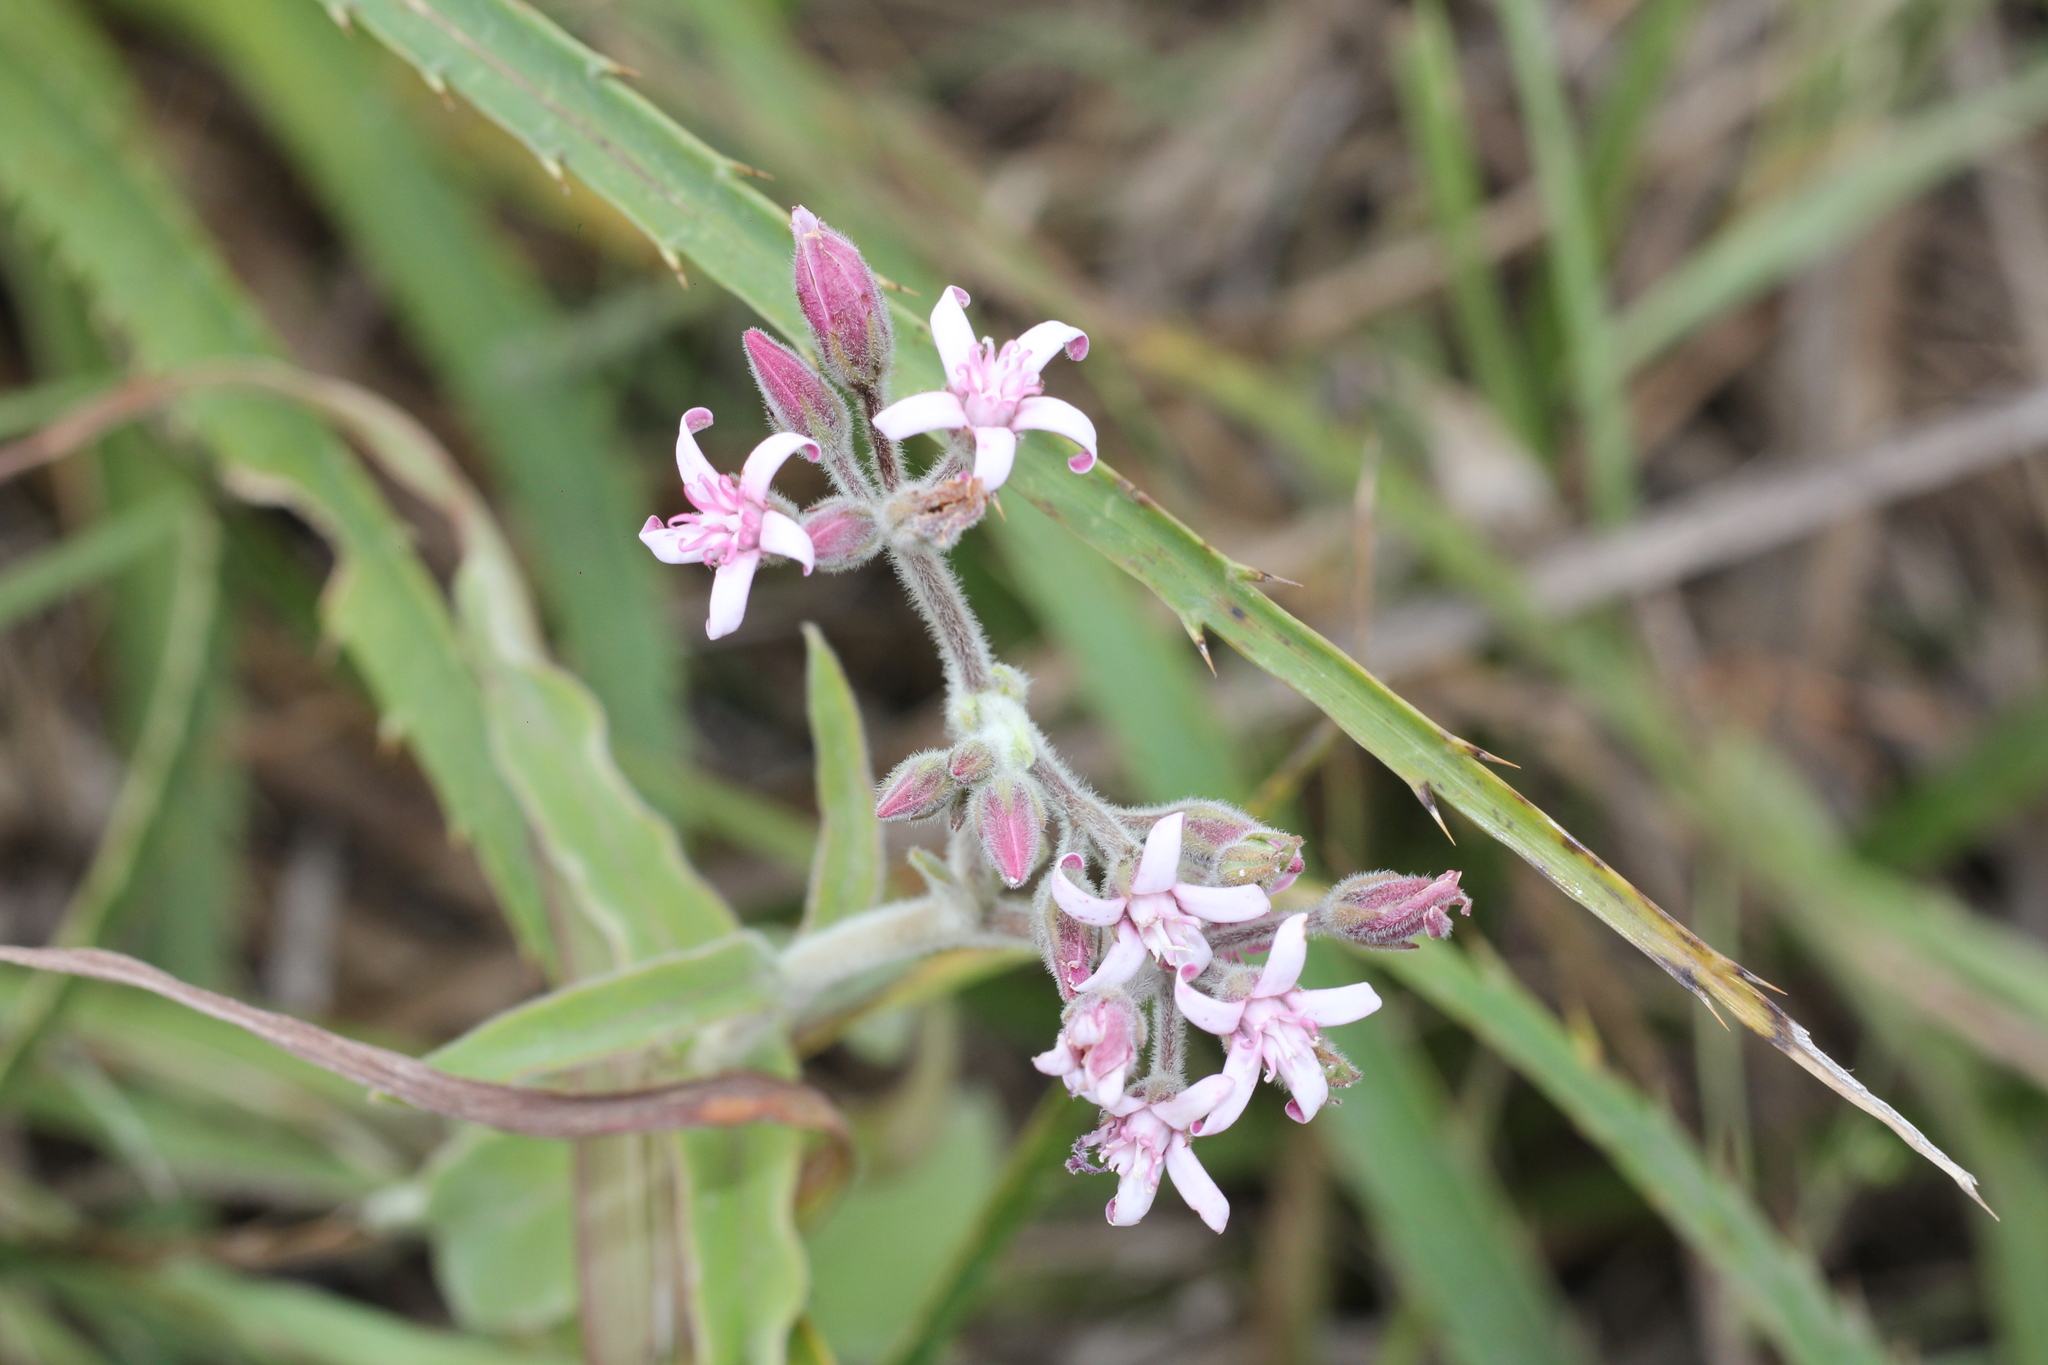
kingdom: Plantae
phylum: Tracheophyta
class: Magnoliopsida
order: Gentianales
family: Apocynaceae
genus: Oxypetalum
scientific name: Oxypetalum solanoides
